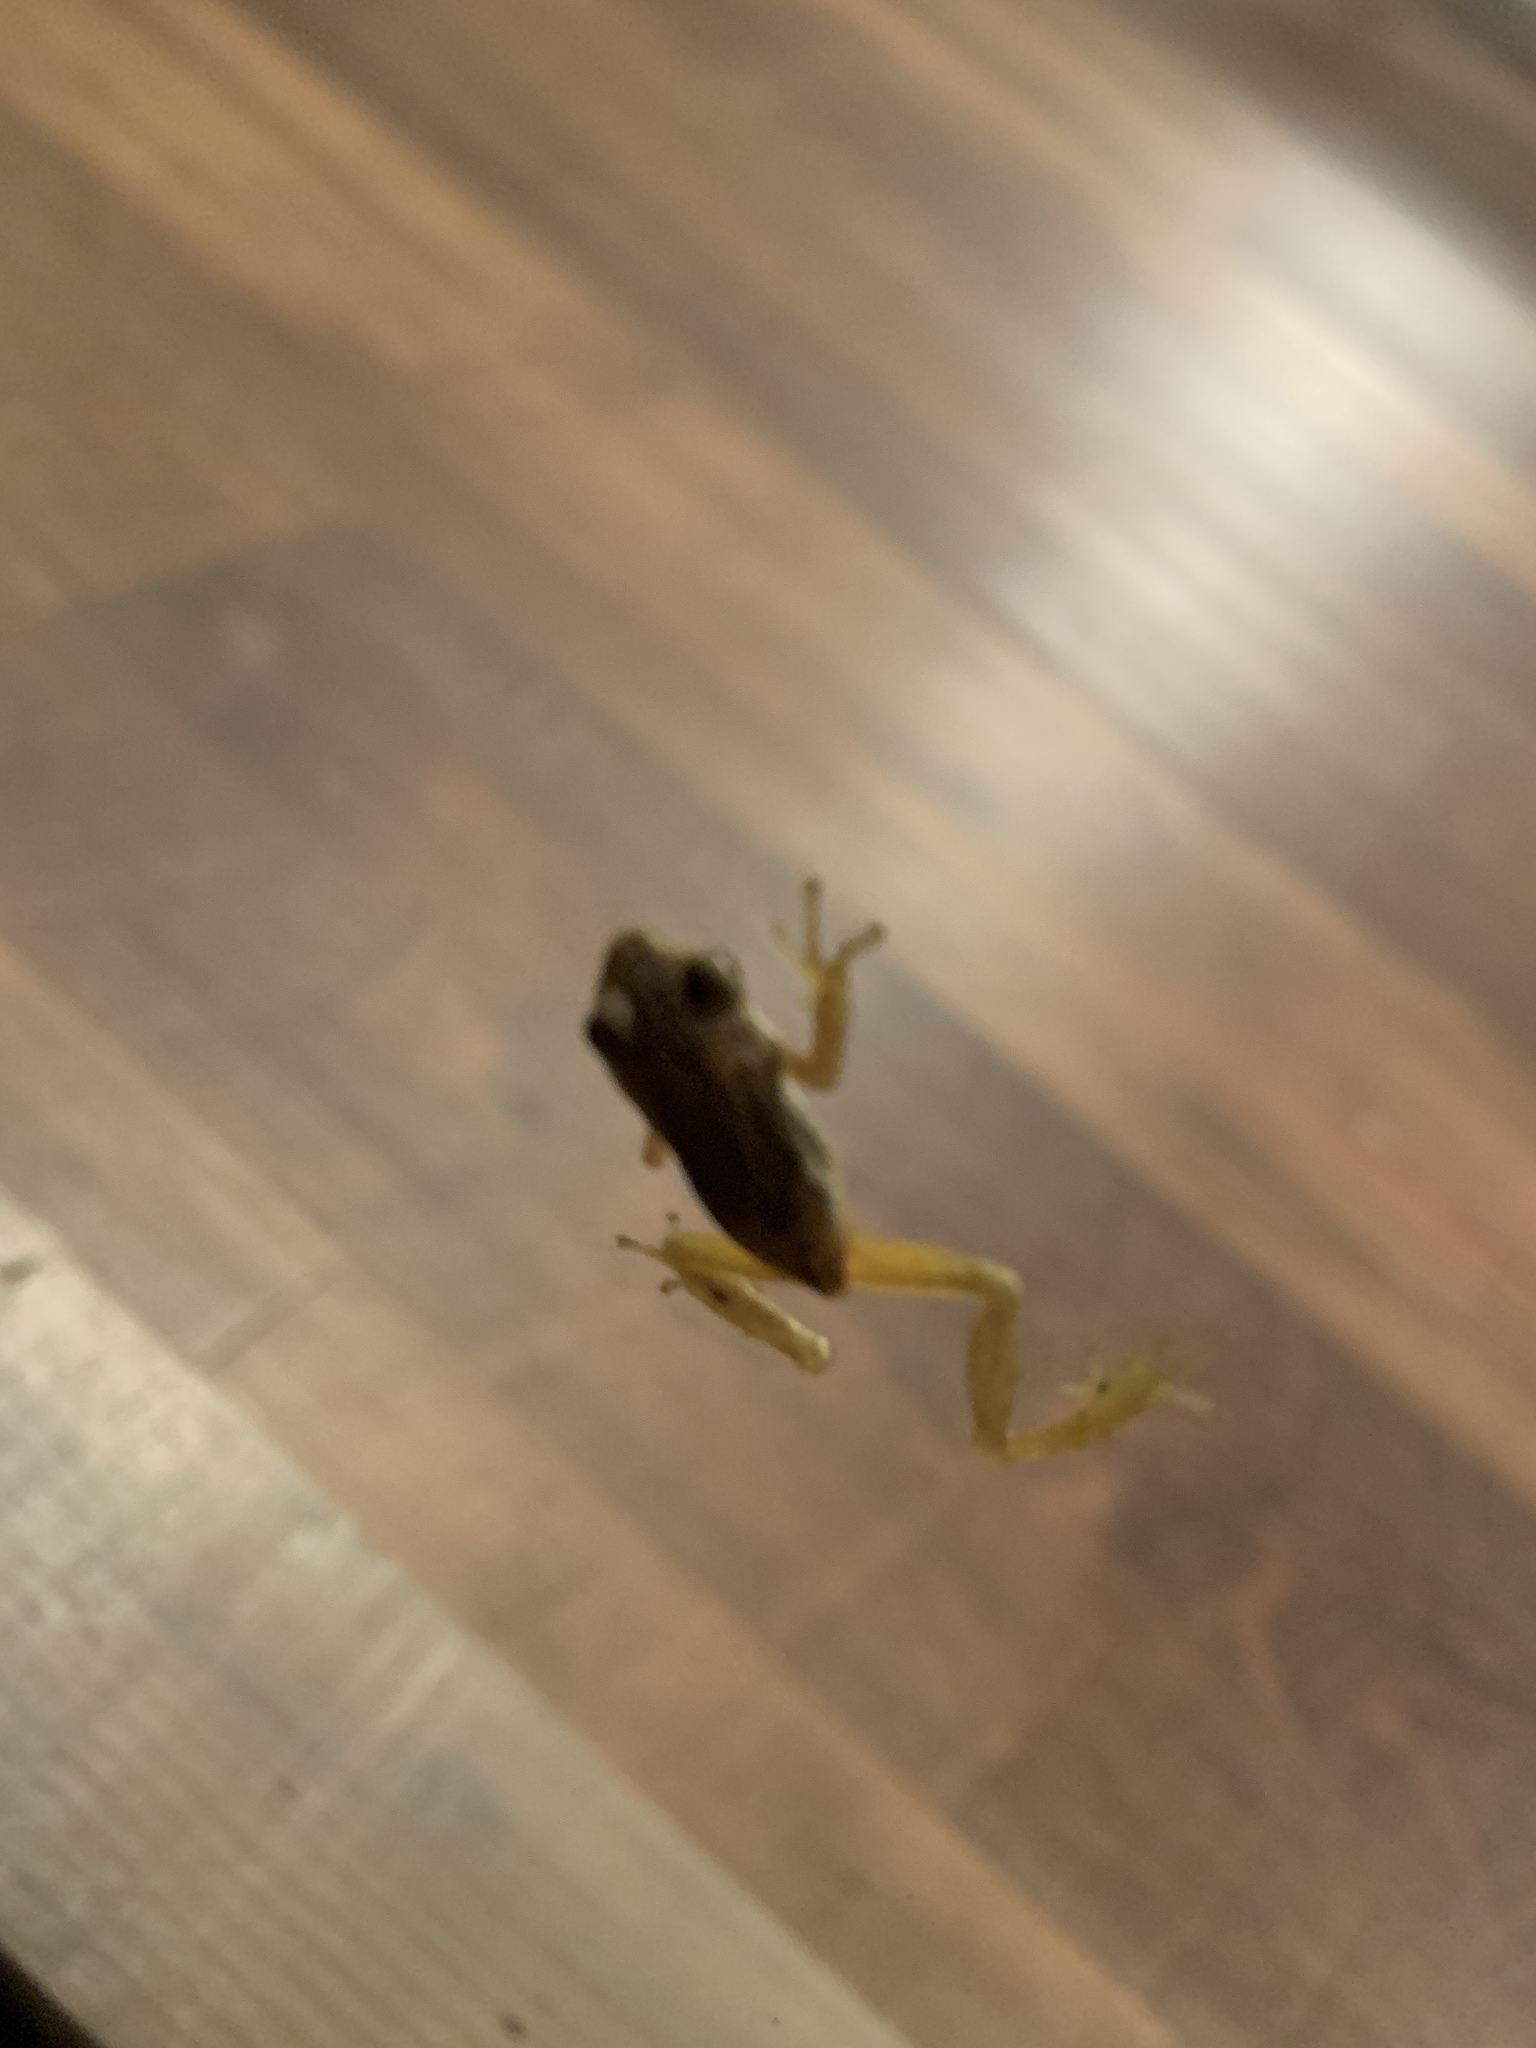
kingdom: Animalia
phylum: Chordata
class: Amphibia
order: Anura
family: Hylidae
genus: Pseudacris
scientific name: Pseudacris regilla
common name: Pacific chorus frog
